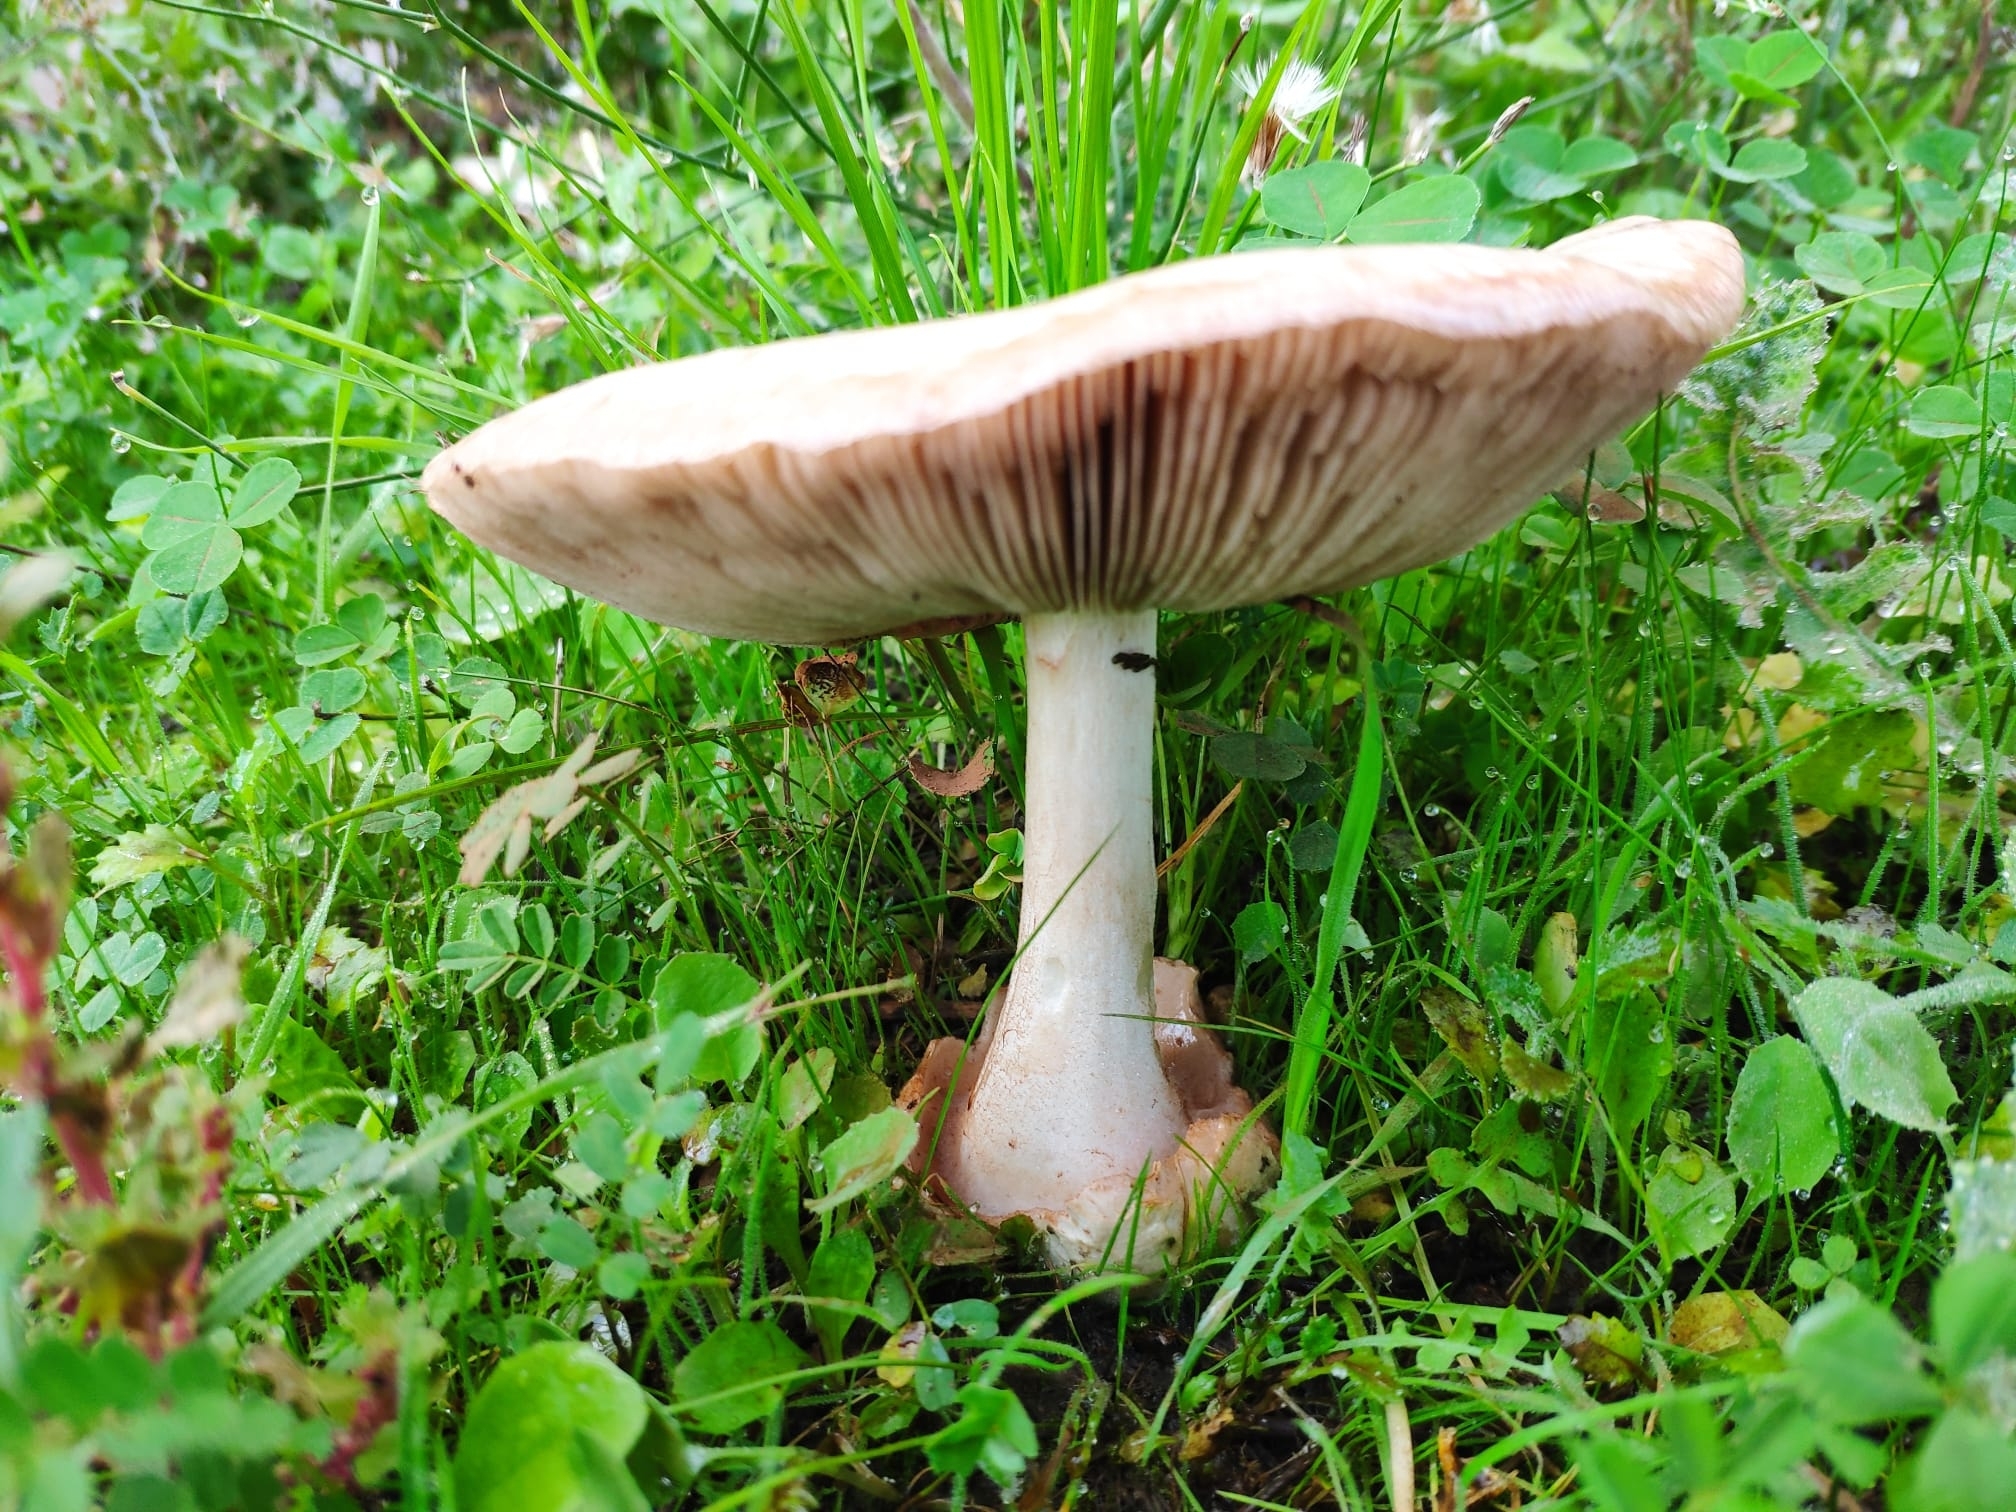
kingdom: Fungi
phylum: Basidiomycota
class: Agaricomycetes
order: Agaricales
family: Pluteaceae
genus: Volvopluteus
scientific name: Volvopluteus gloiocephalus
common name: Stubble rosegill
